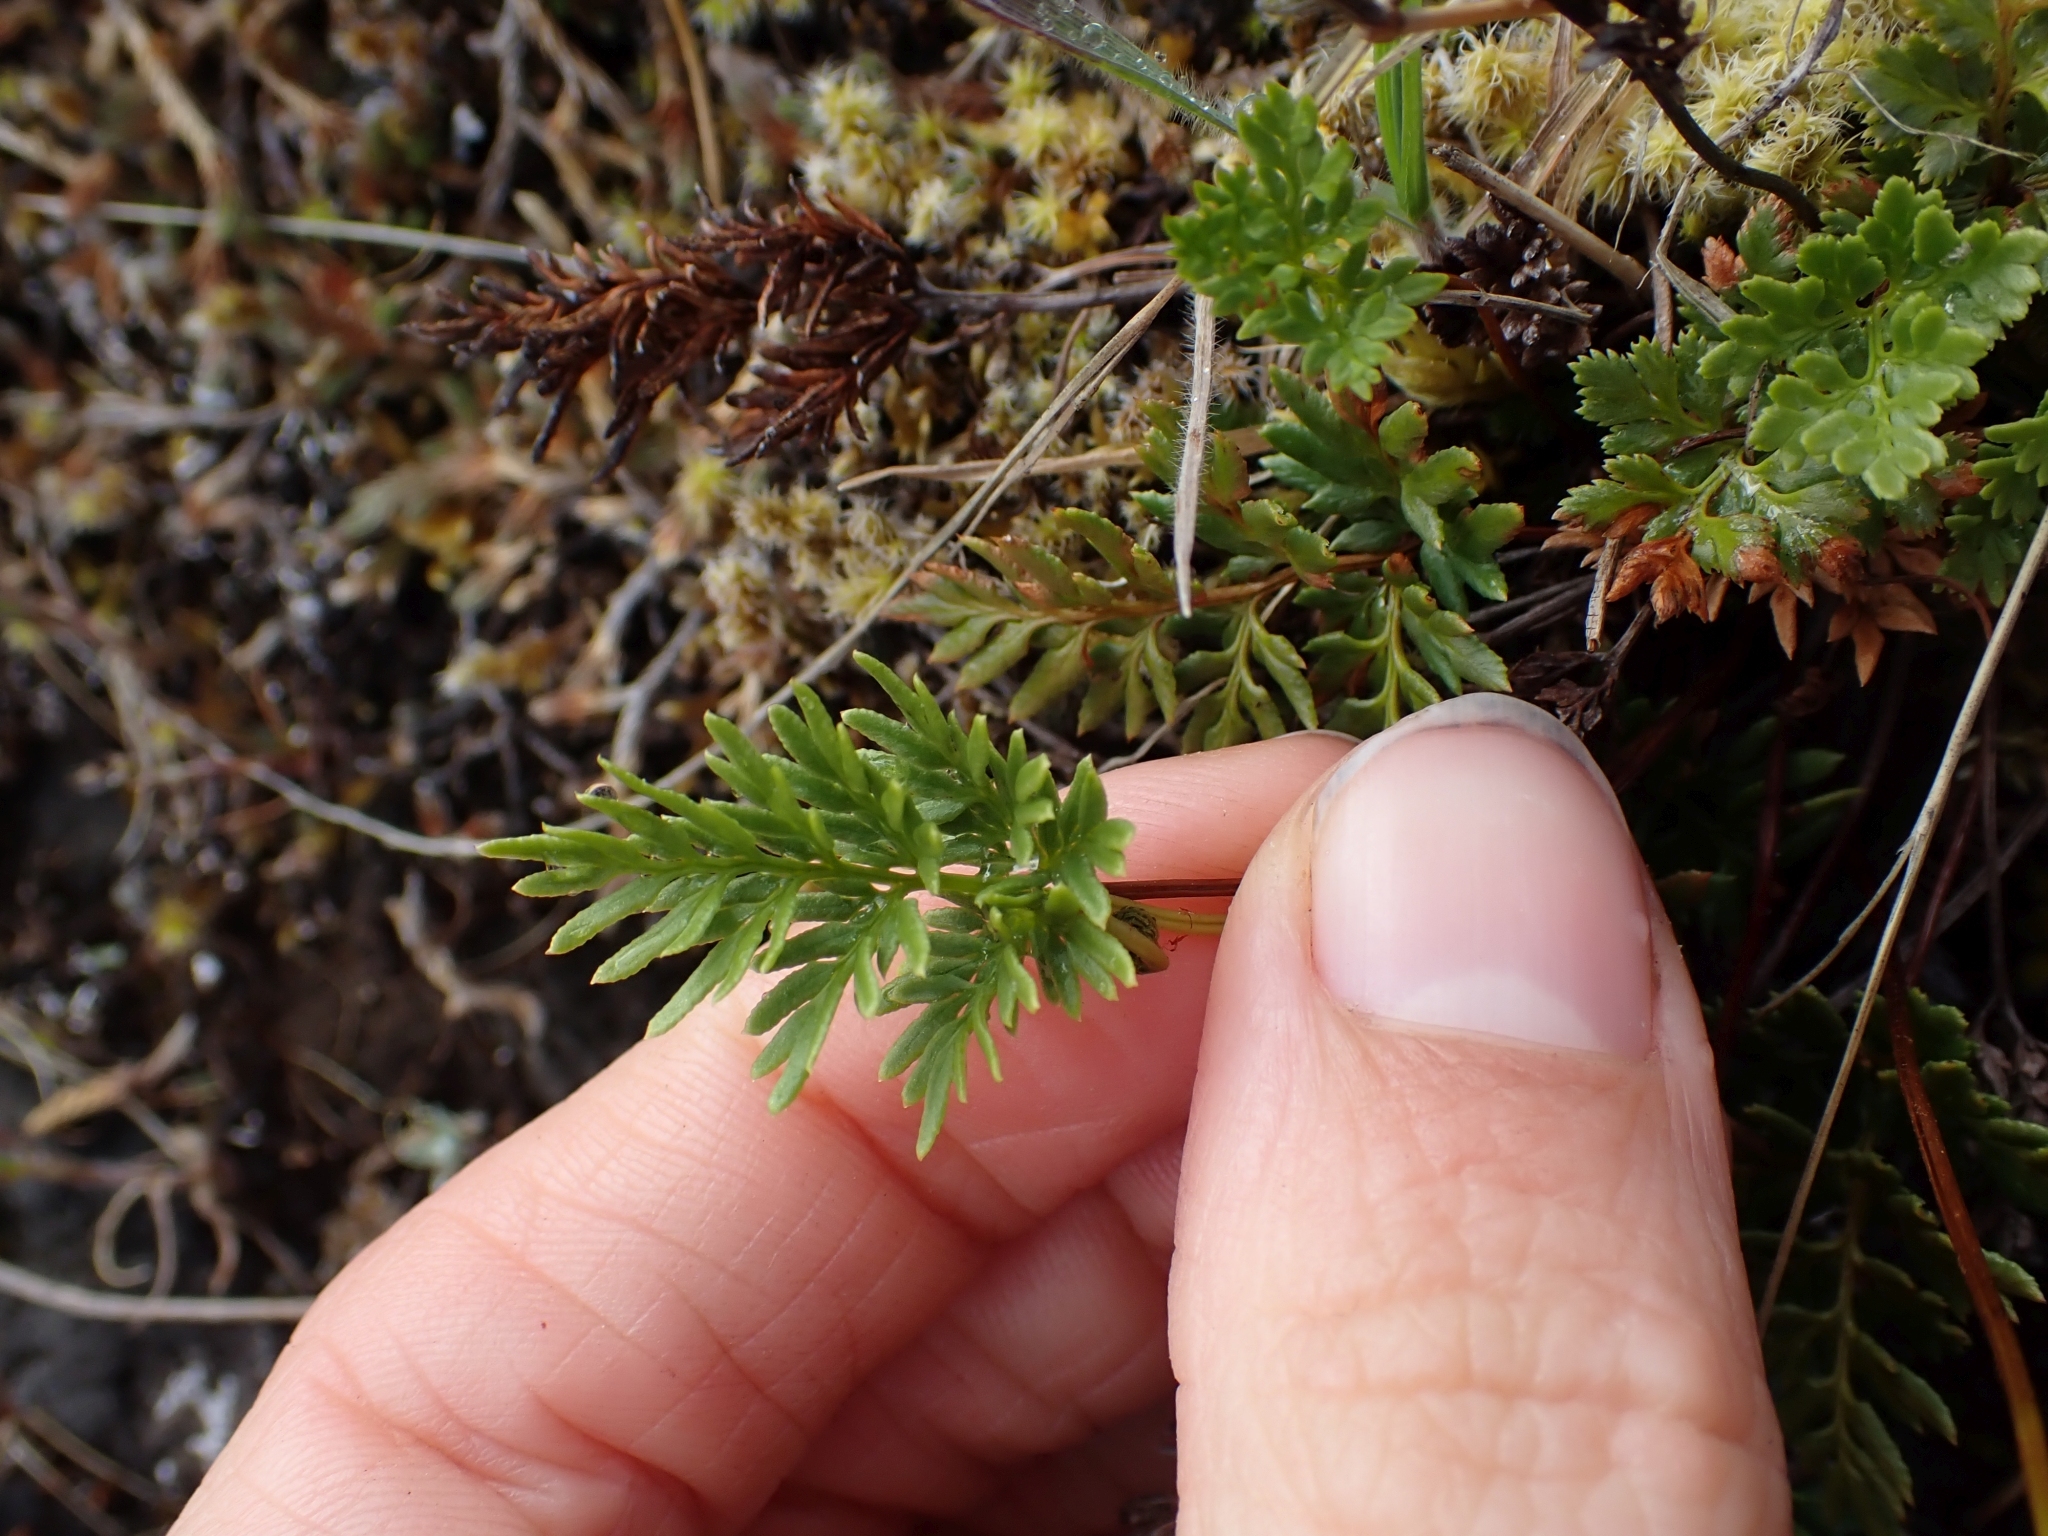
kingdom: Plantae
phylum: Tracheophyta
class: Polypodiopsida
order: Polypodiales
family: Pteridaceae
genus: Aspidotis
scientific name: Aspidotis densa
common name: Indian's dream
